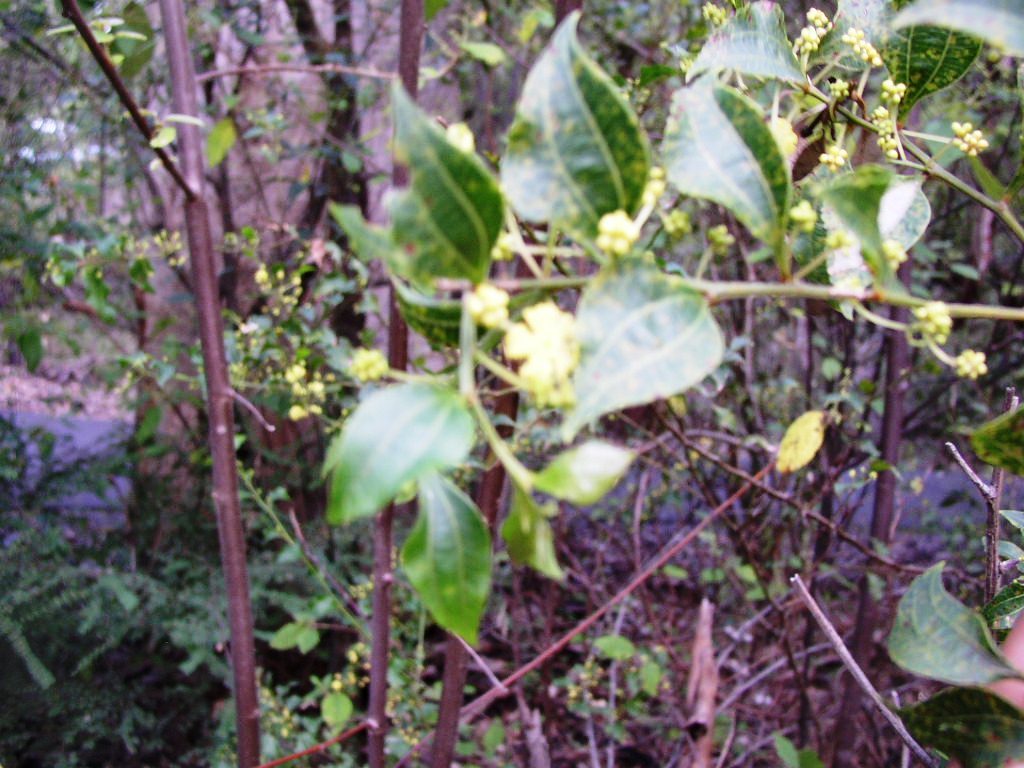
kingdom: Plantae
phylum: Tracheophyta
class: Magnoliopsida
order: Fabales
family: Fabaceae
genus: Acacia
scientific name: Acacia urophylla
